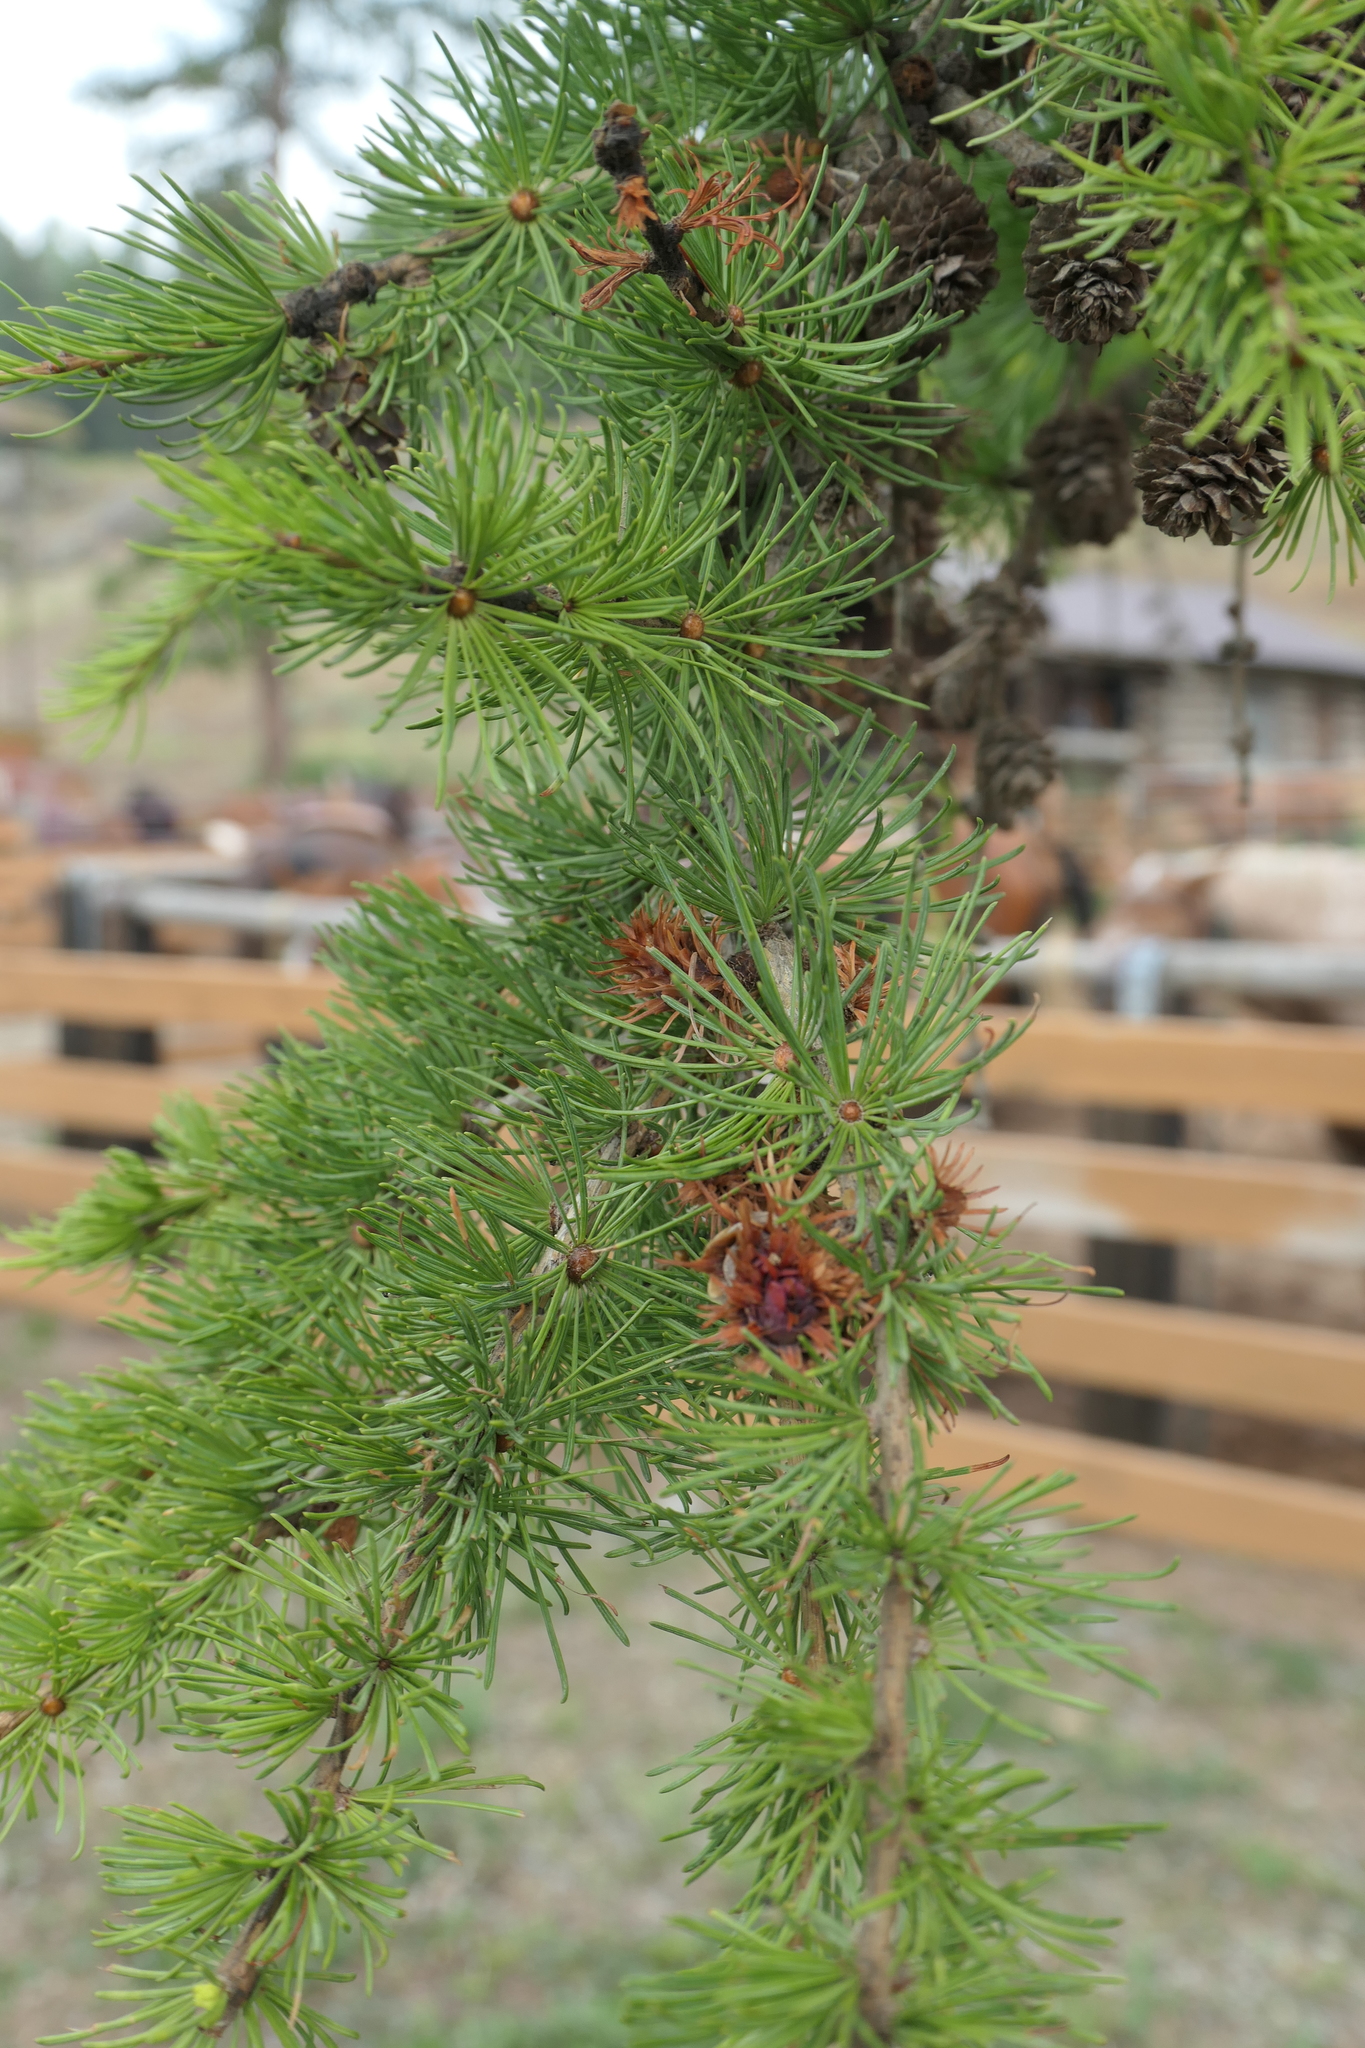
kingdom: Plantae
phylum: Tracheophyta
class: Pinopsida
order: Pinales
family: Pinaceae
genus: Larix
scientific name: Larix occidentalis
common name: Western larch
